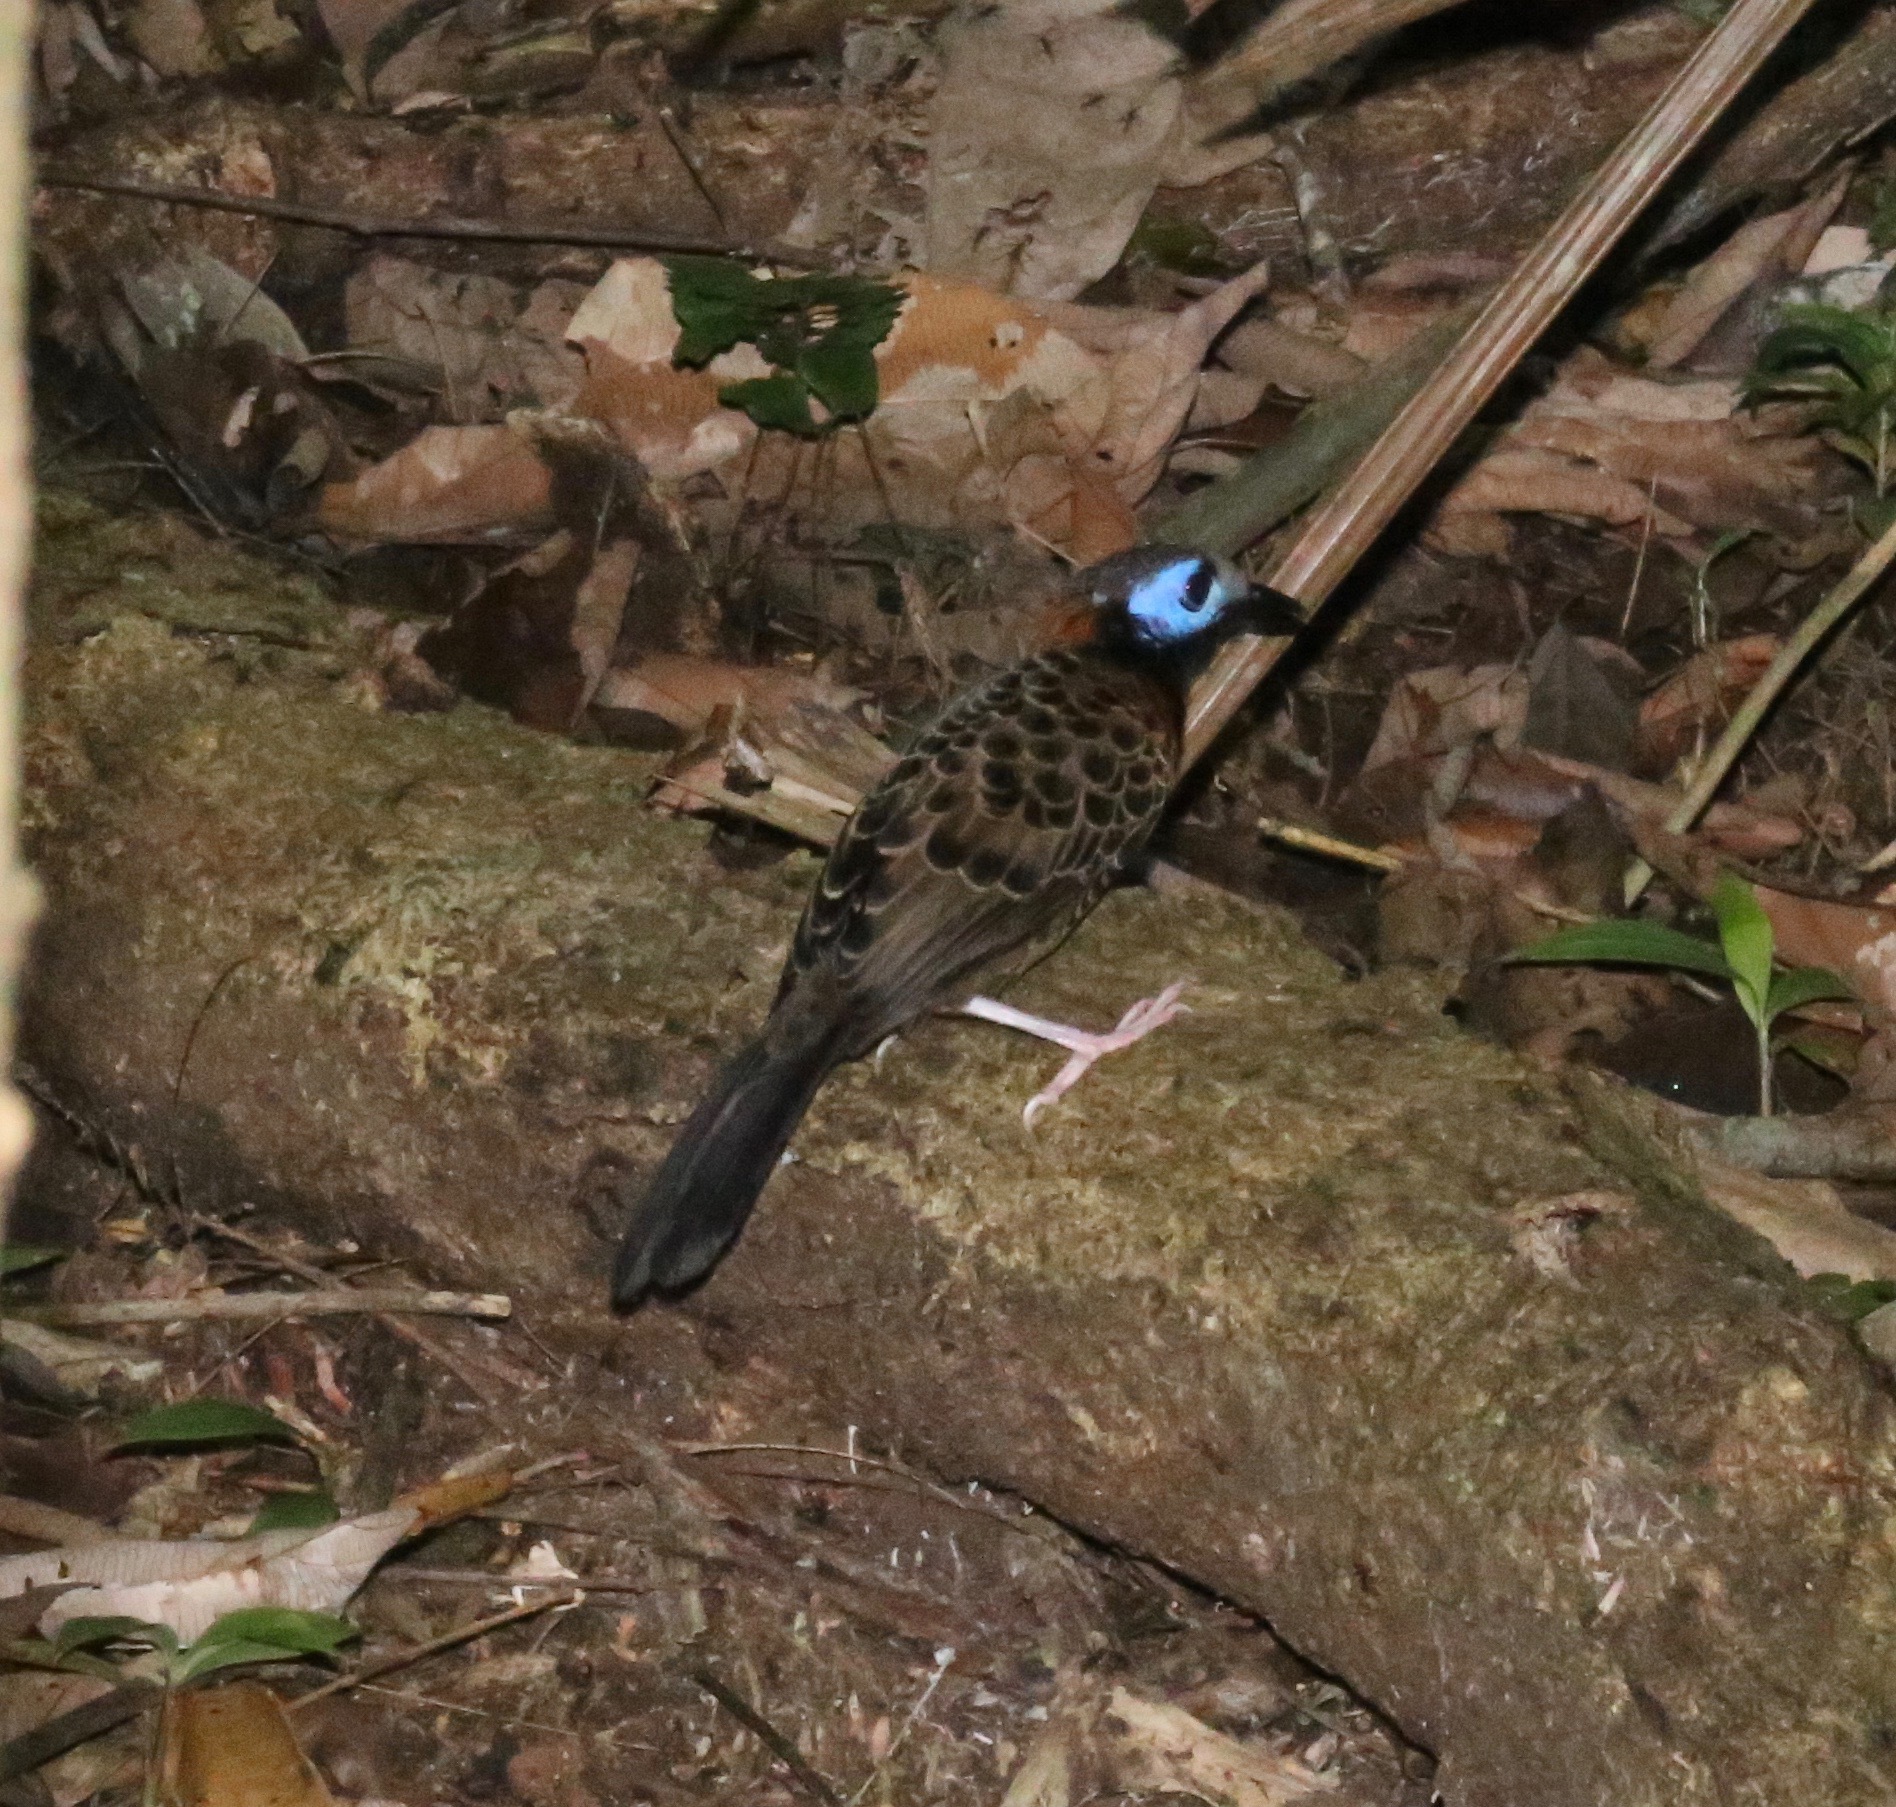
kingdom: Animalia
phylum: Chordata
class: Aves
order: Passeriformes
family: Thamnophilidae
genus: Phaenostictus
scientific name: Phaenostictus mcleannani
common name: Ocellated antbird
